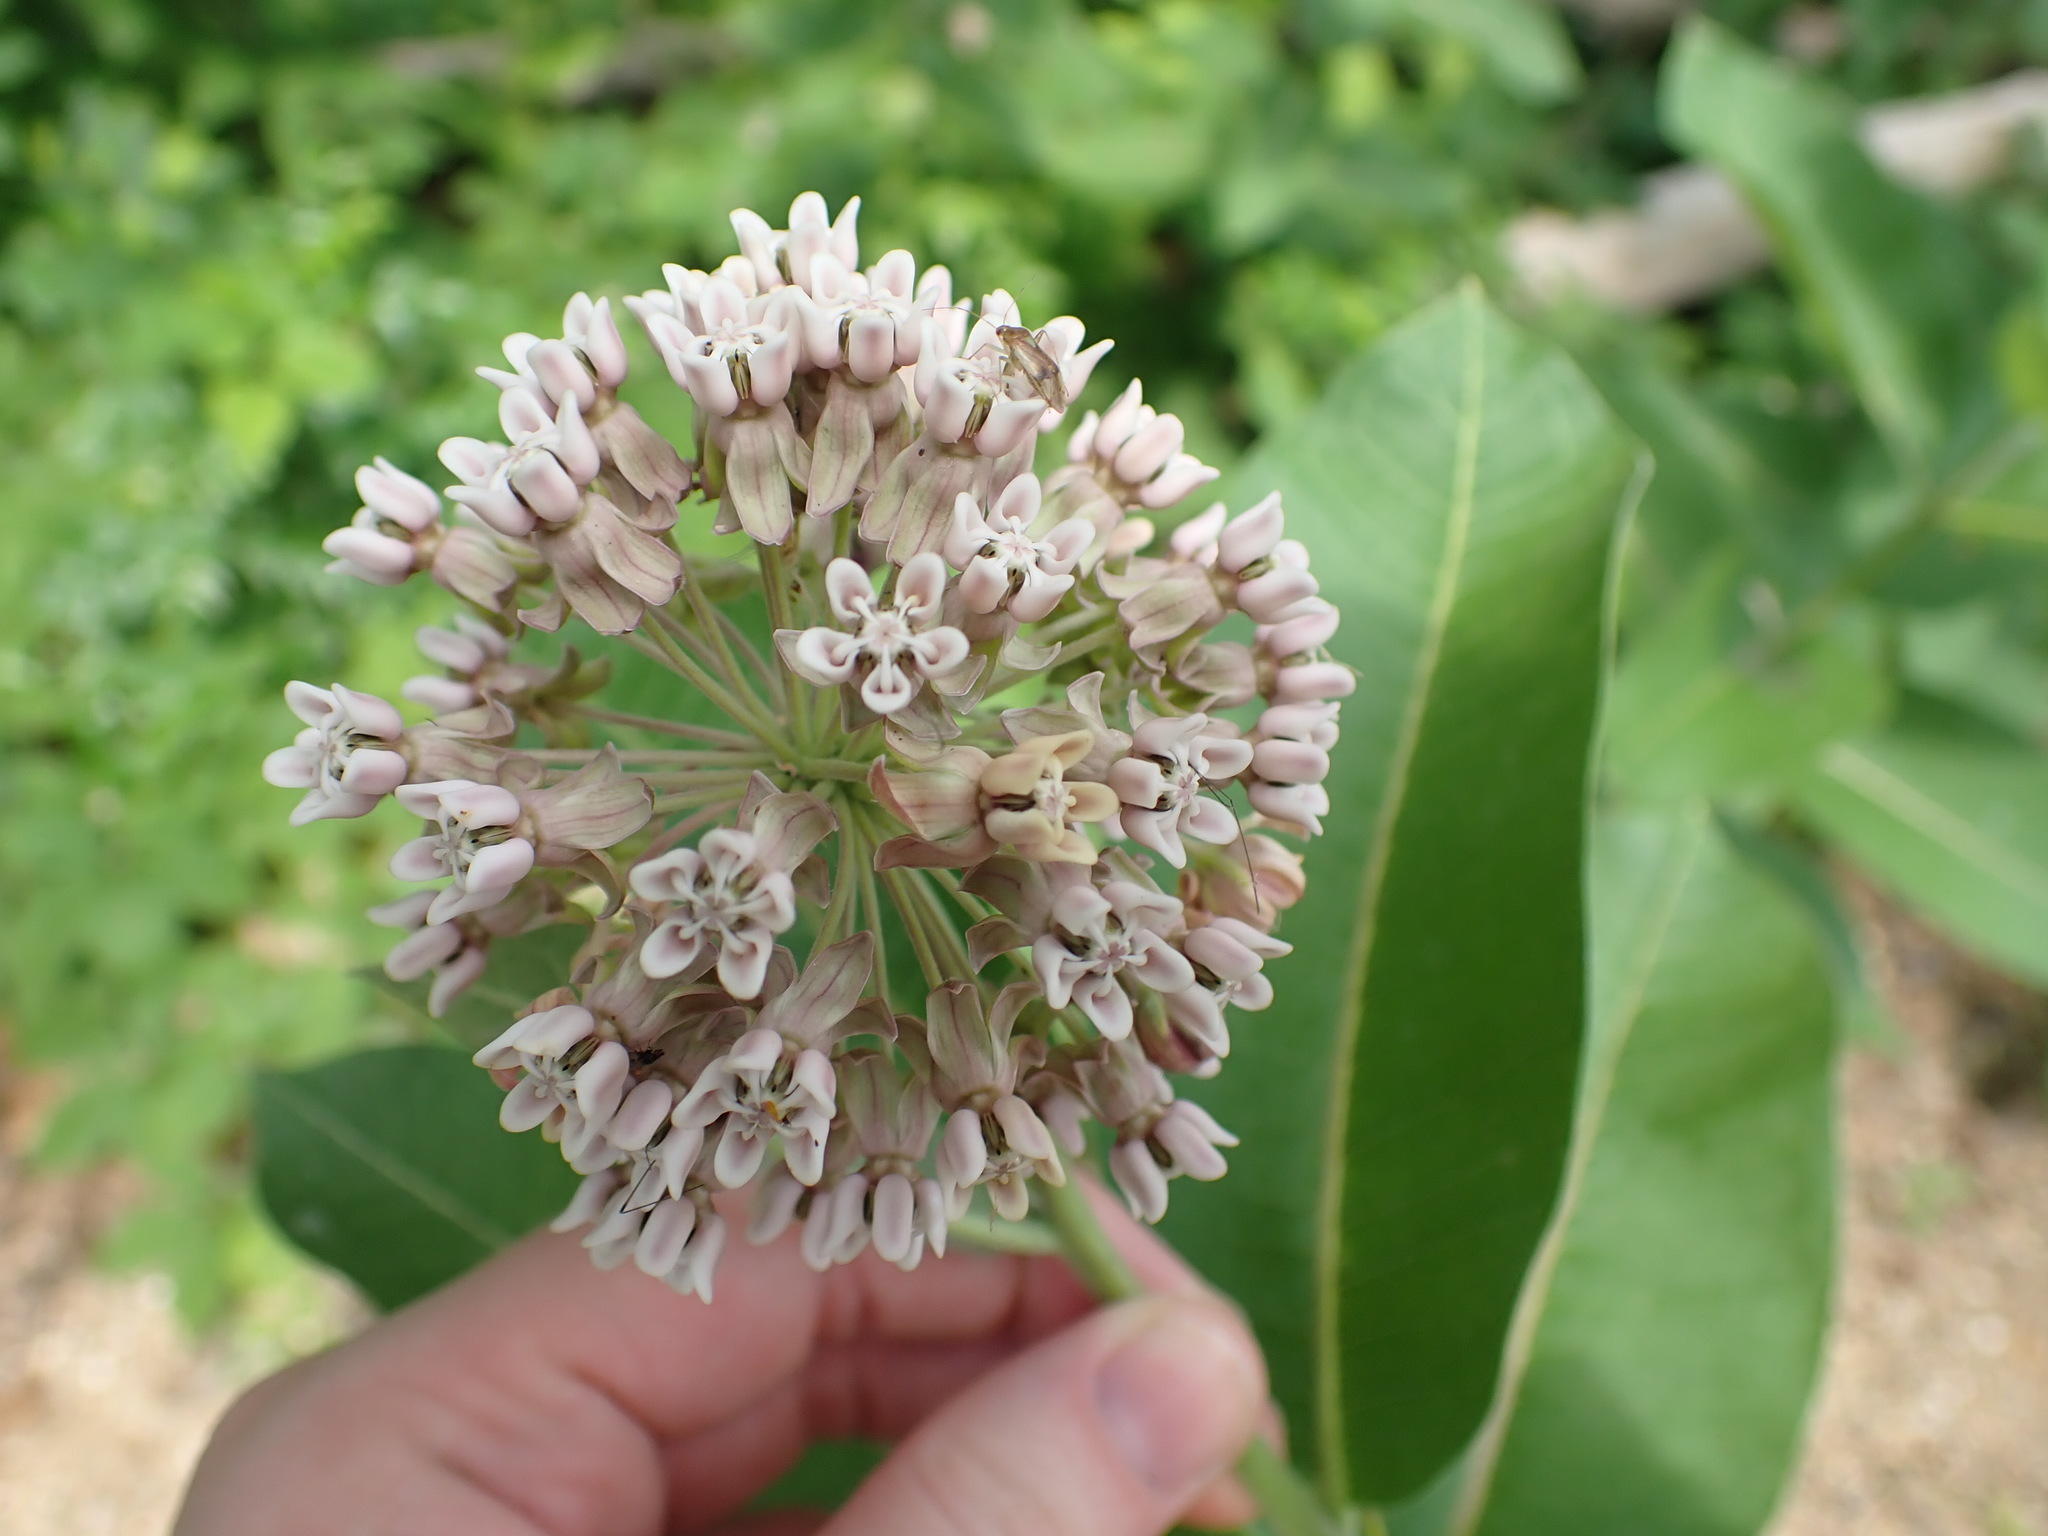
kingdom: Plantae
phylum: Tracheophyta
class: Magnoliopsida
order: Gentianales
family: Apocynaceae
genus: Asclepias
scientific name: Asclepias syriaca
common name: Common milkweed
